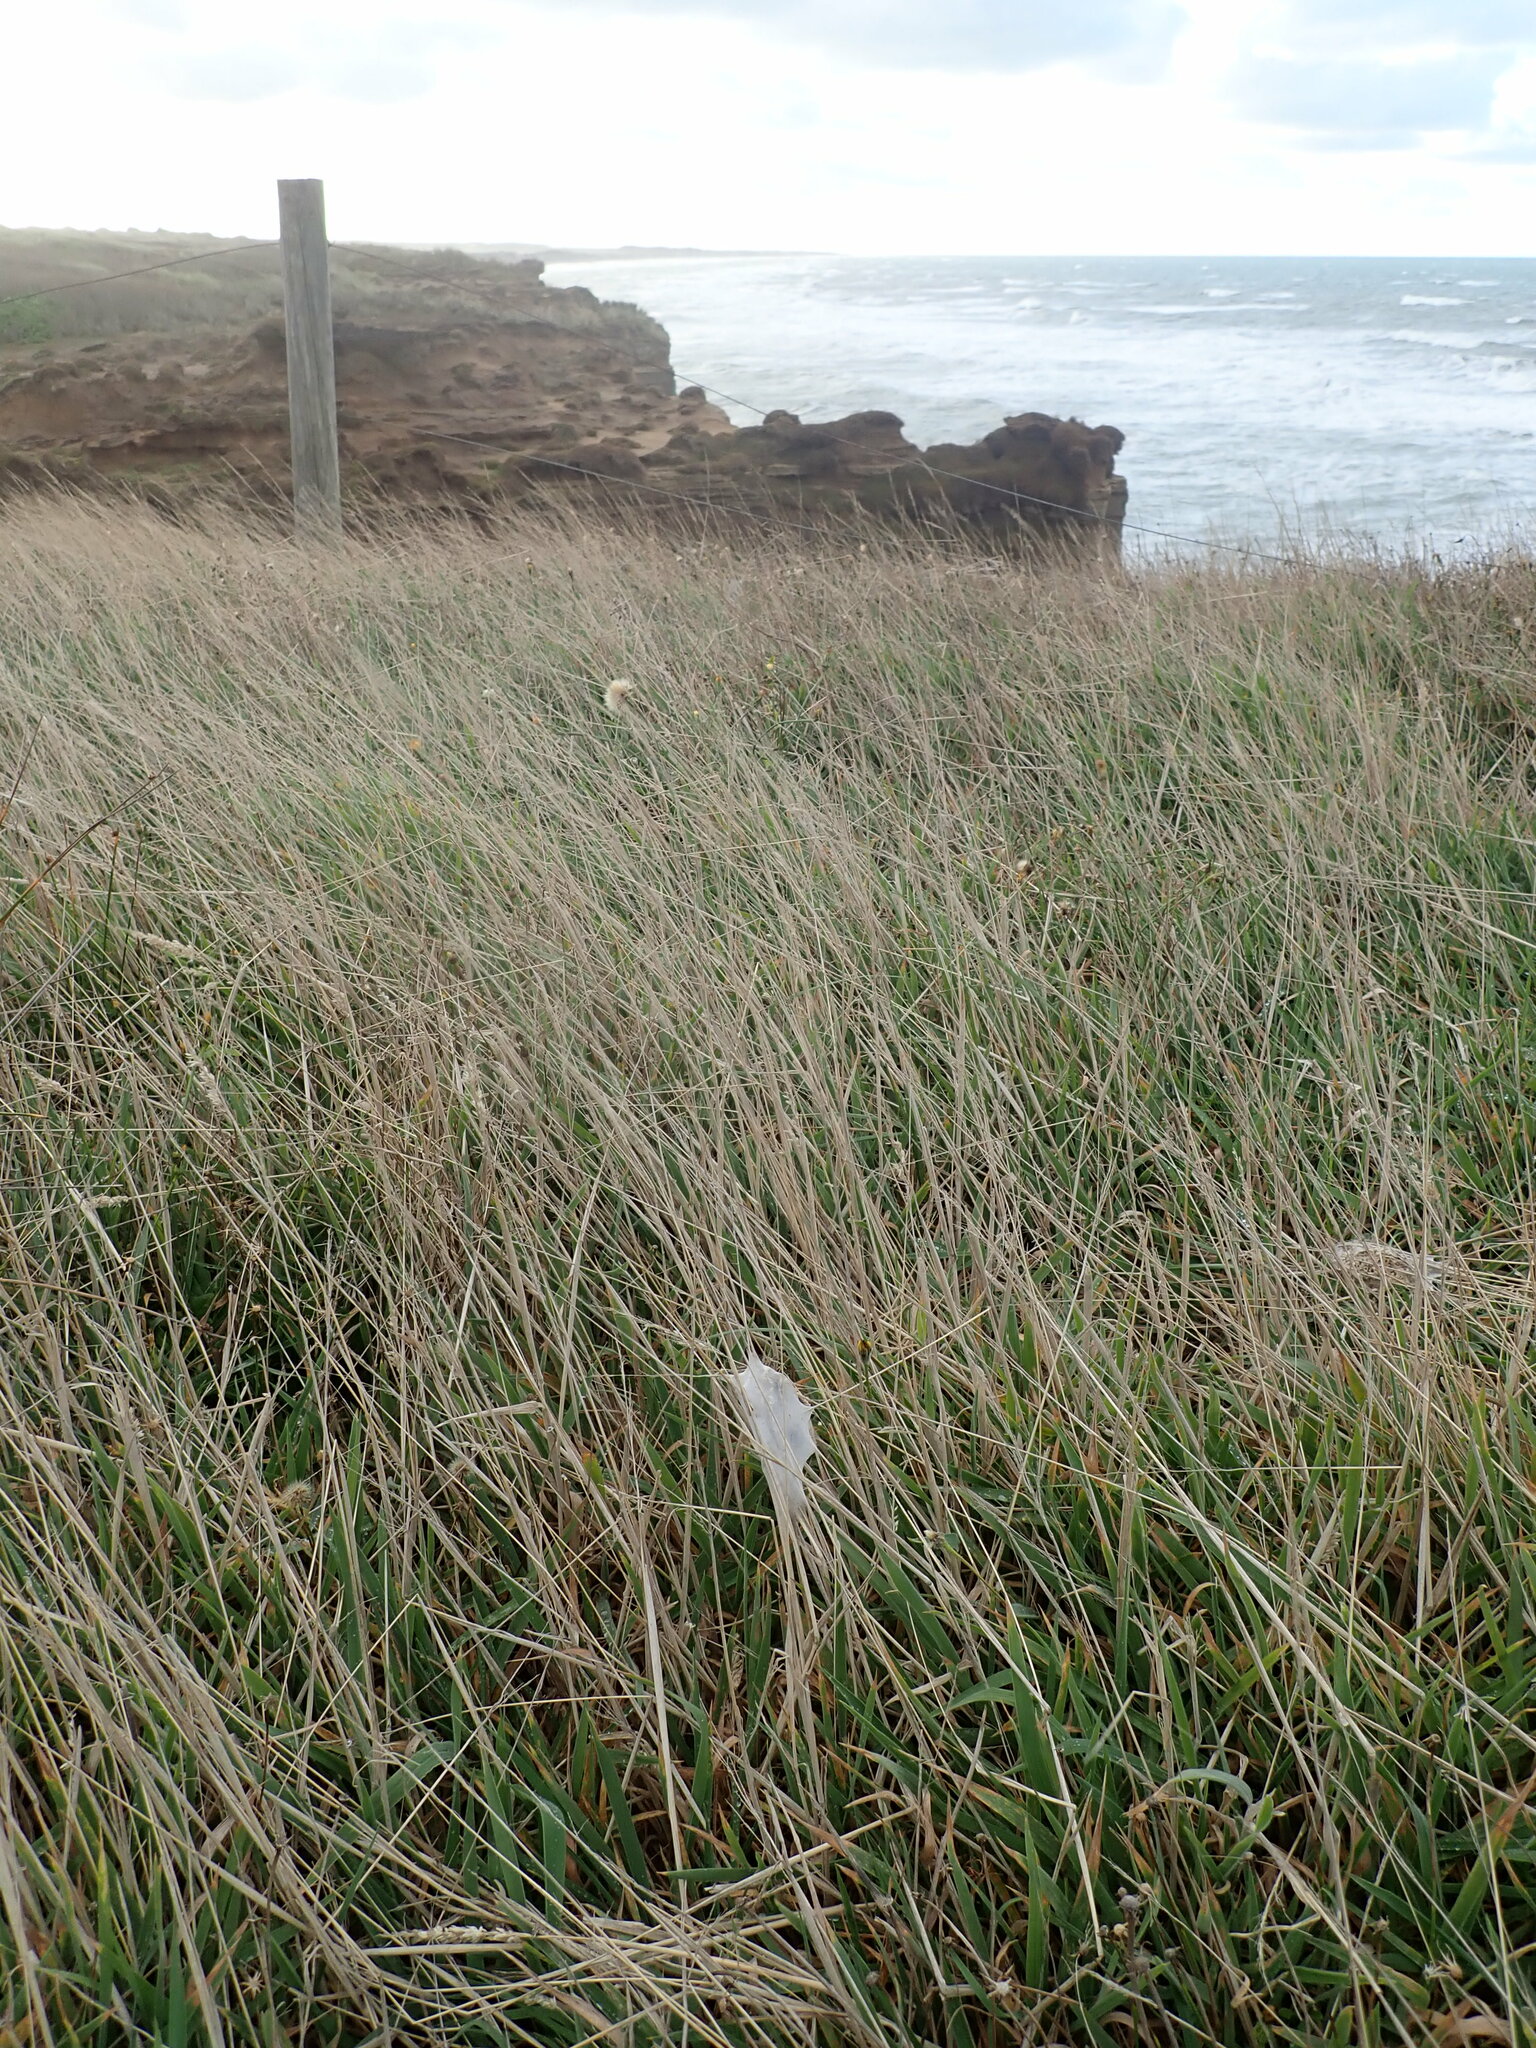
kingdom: Animalia
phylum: Arthropoda
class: Arachnida
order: Araneae
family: Pisauridae
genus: Dolomedes
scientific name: Dolomedes minor
